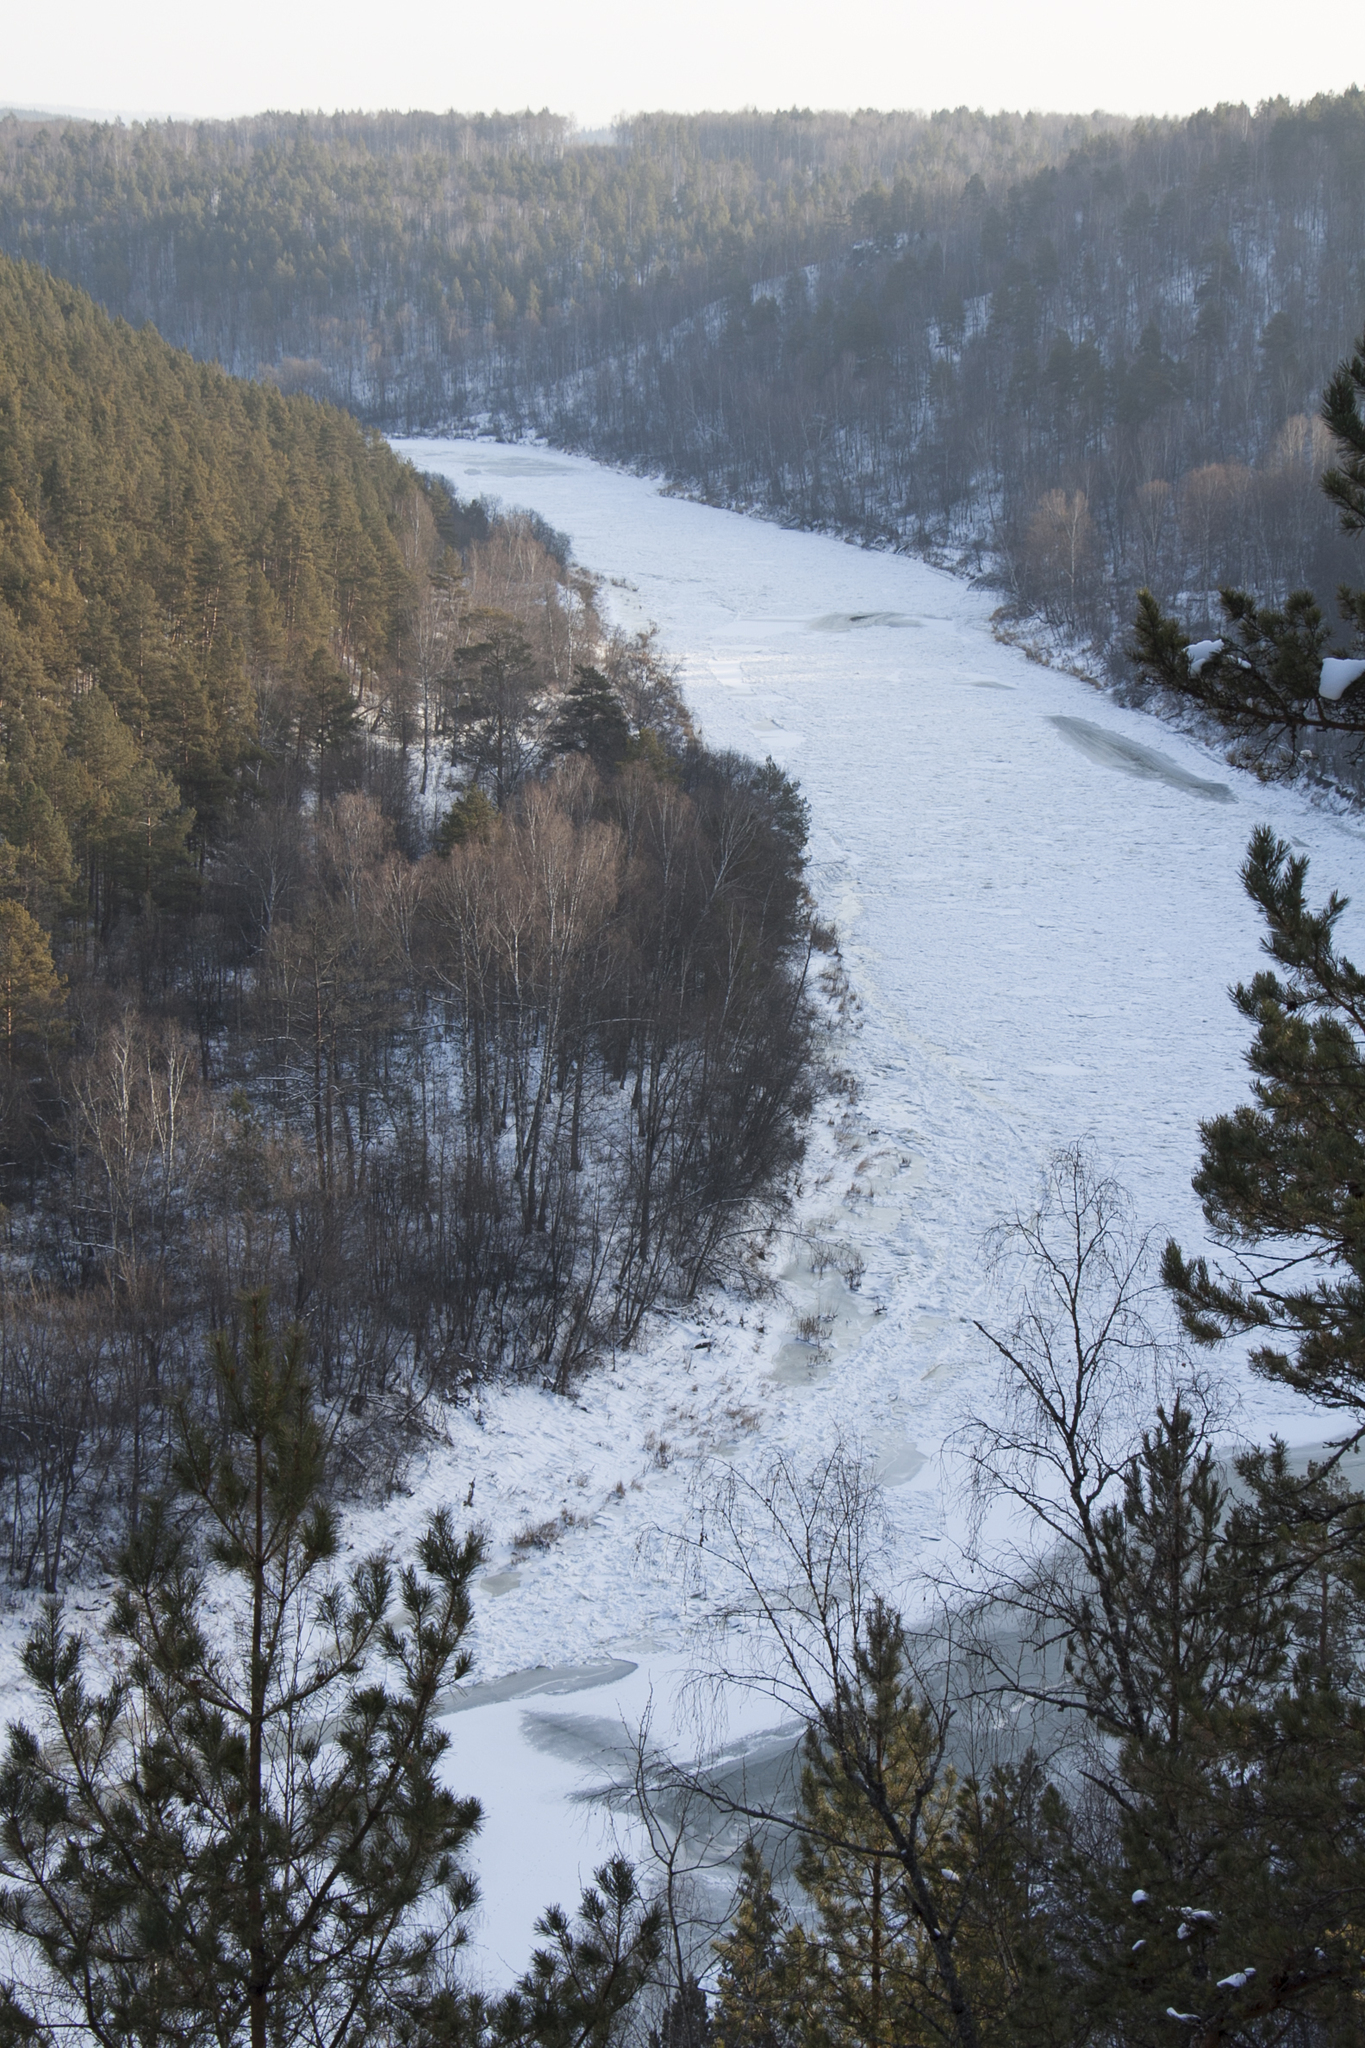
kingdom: Plantae
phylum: Tracheophyta
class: Pinopsida
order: Pinales
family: Pinaceae
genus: Pinus
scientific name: Pinus sylvestris
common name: Scots pine
